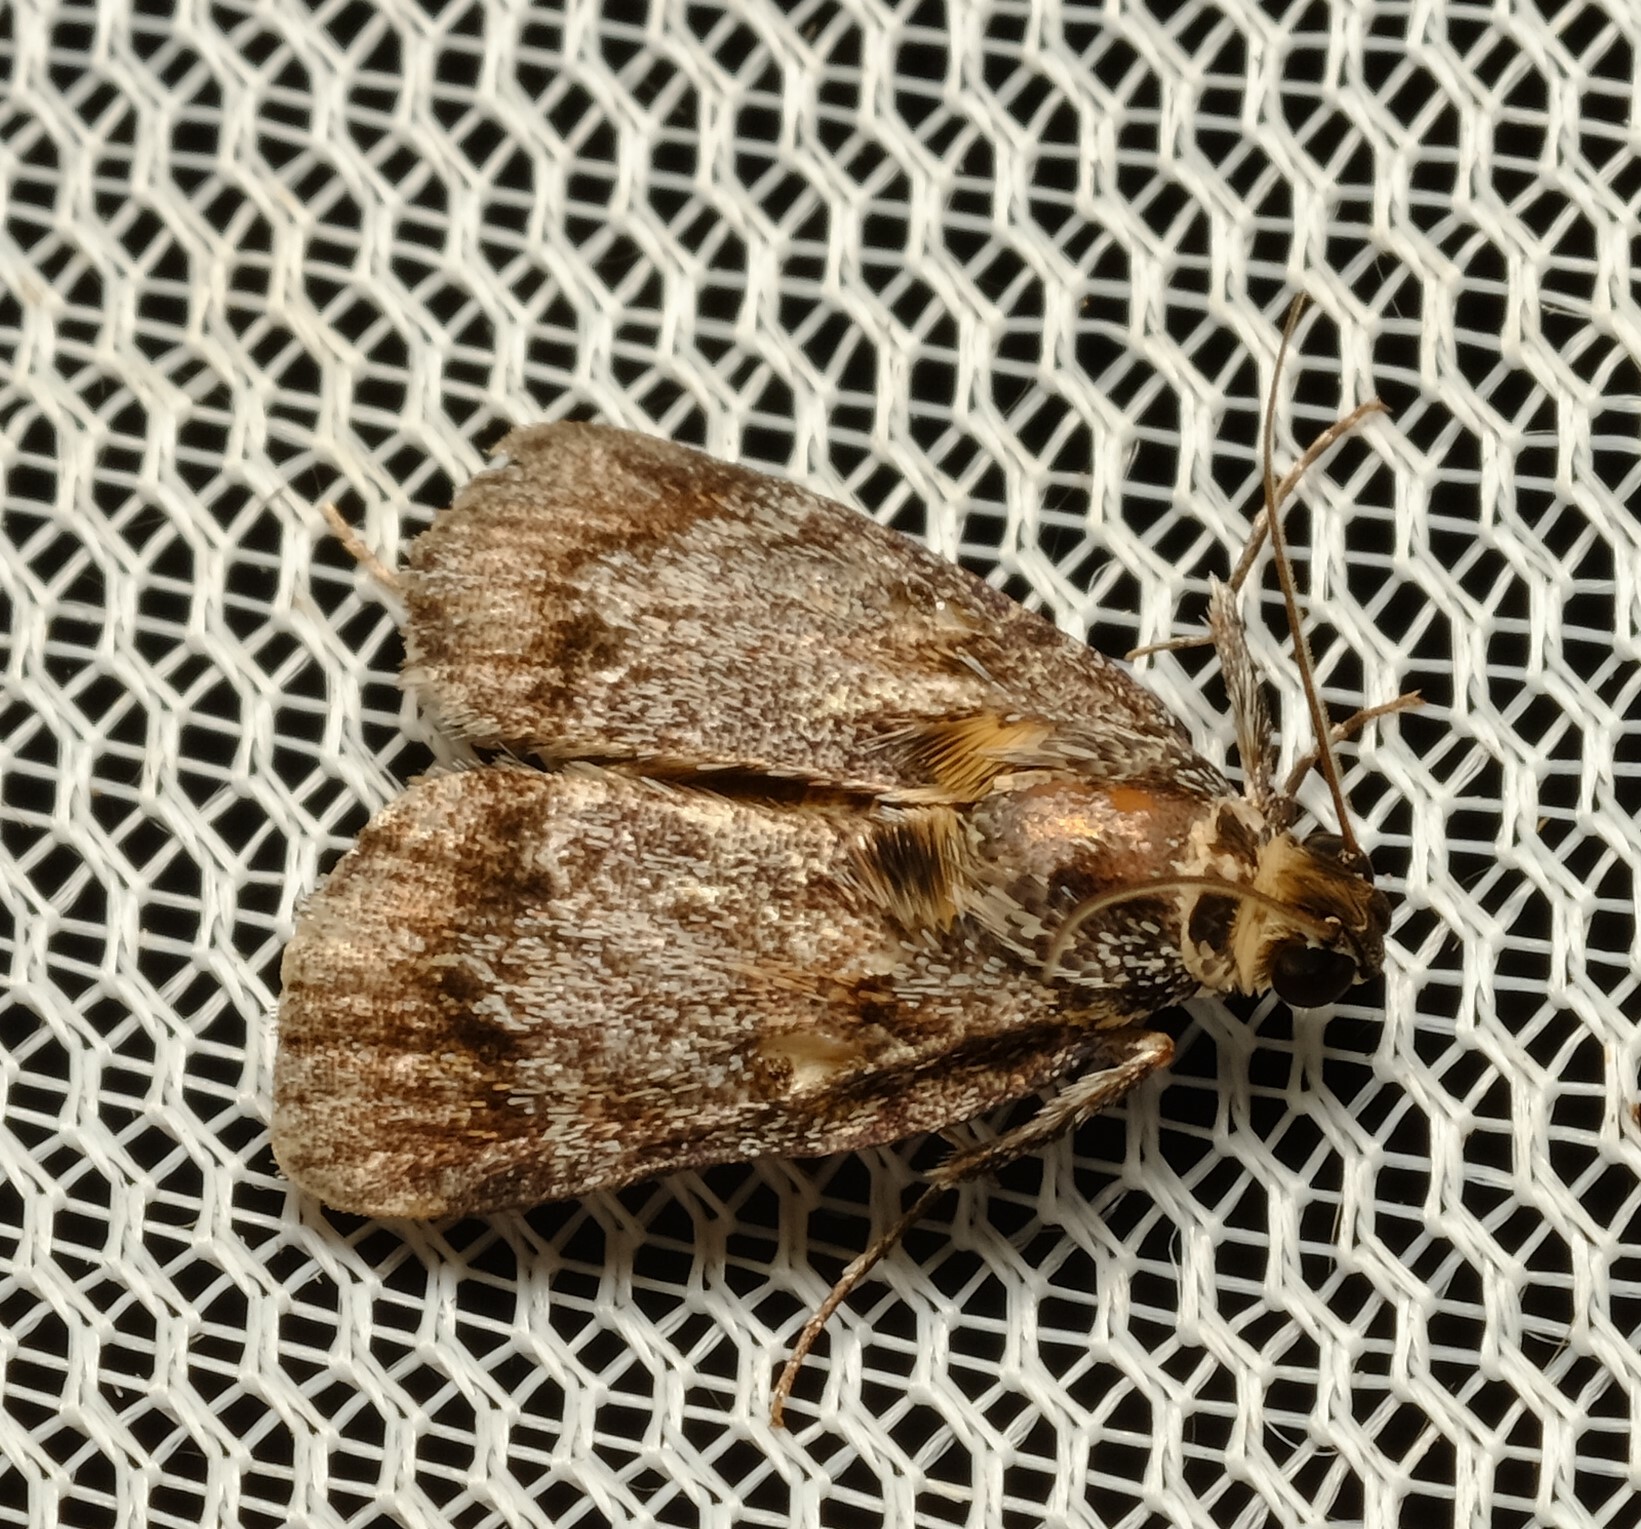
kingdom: Animalia
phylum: Arthropoda
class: Insecta
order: Lepidoptera
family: Pyralidae
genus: Spectrotrota
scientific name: Spectrotrota fimbrialis
